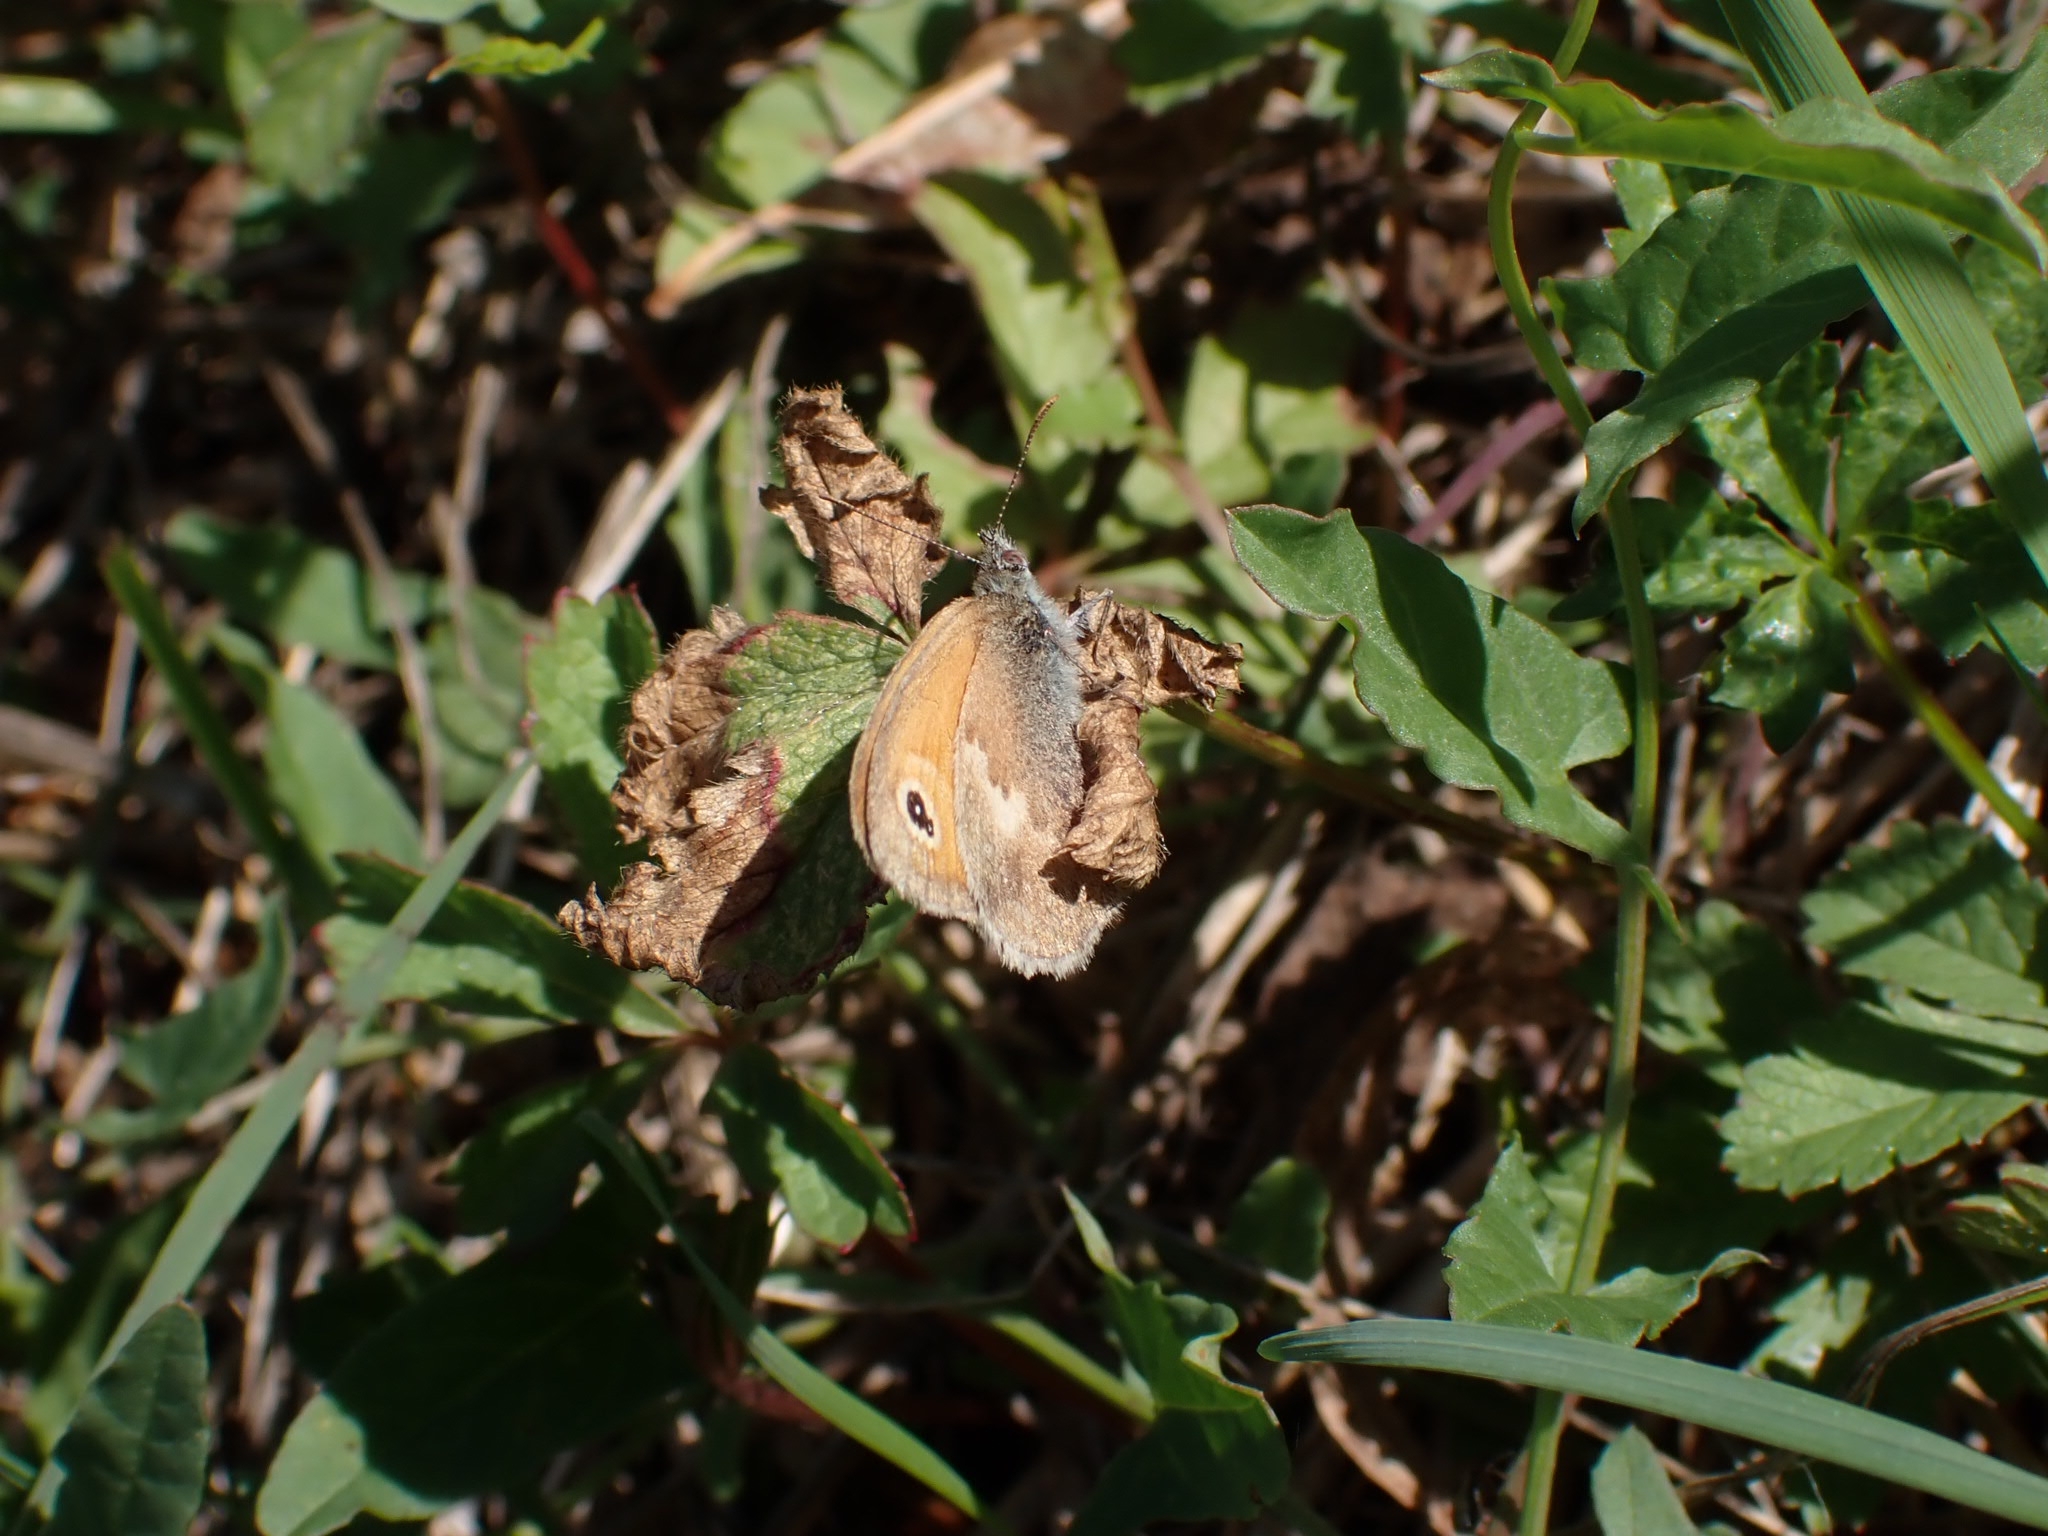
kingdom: Animalia
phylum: Arthropoda
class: Insecta
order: Lepidoptera
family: Nymphalidae
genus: Coenonympha
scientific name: Coenonympha pamphilus
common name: Small heath
